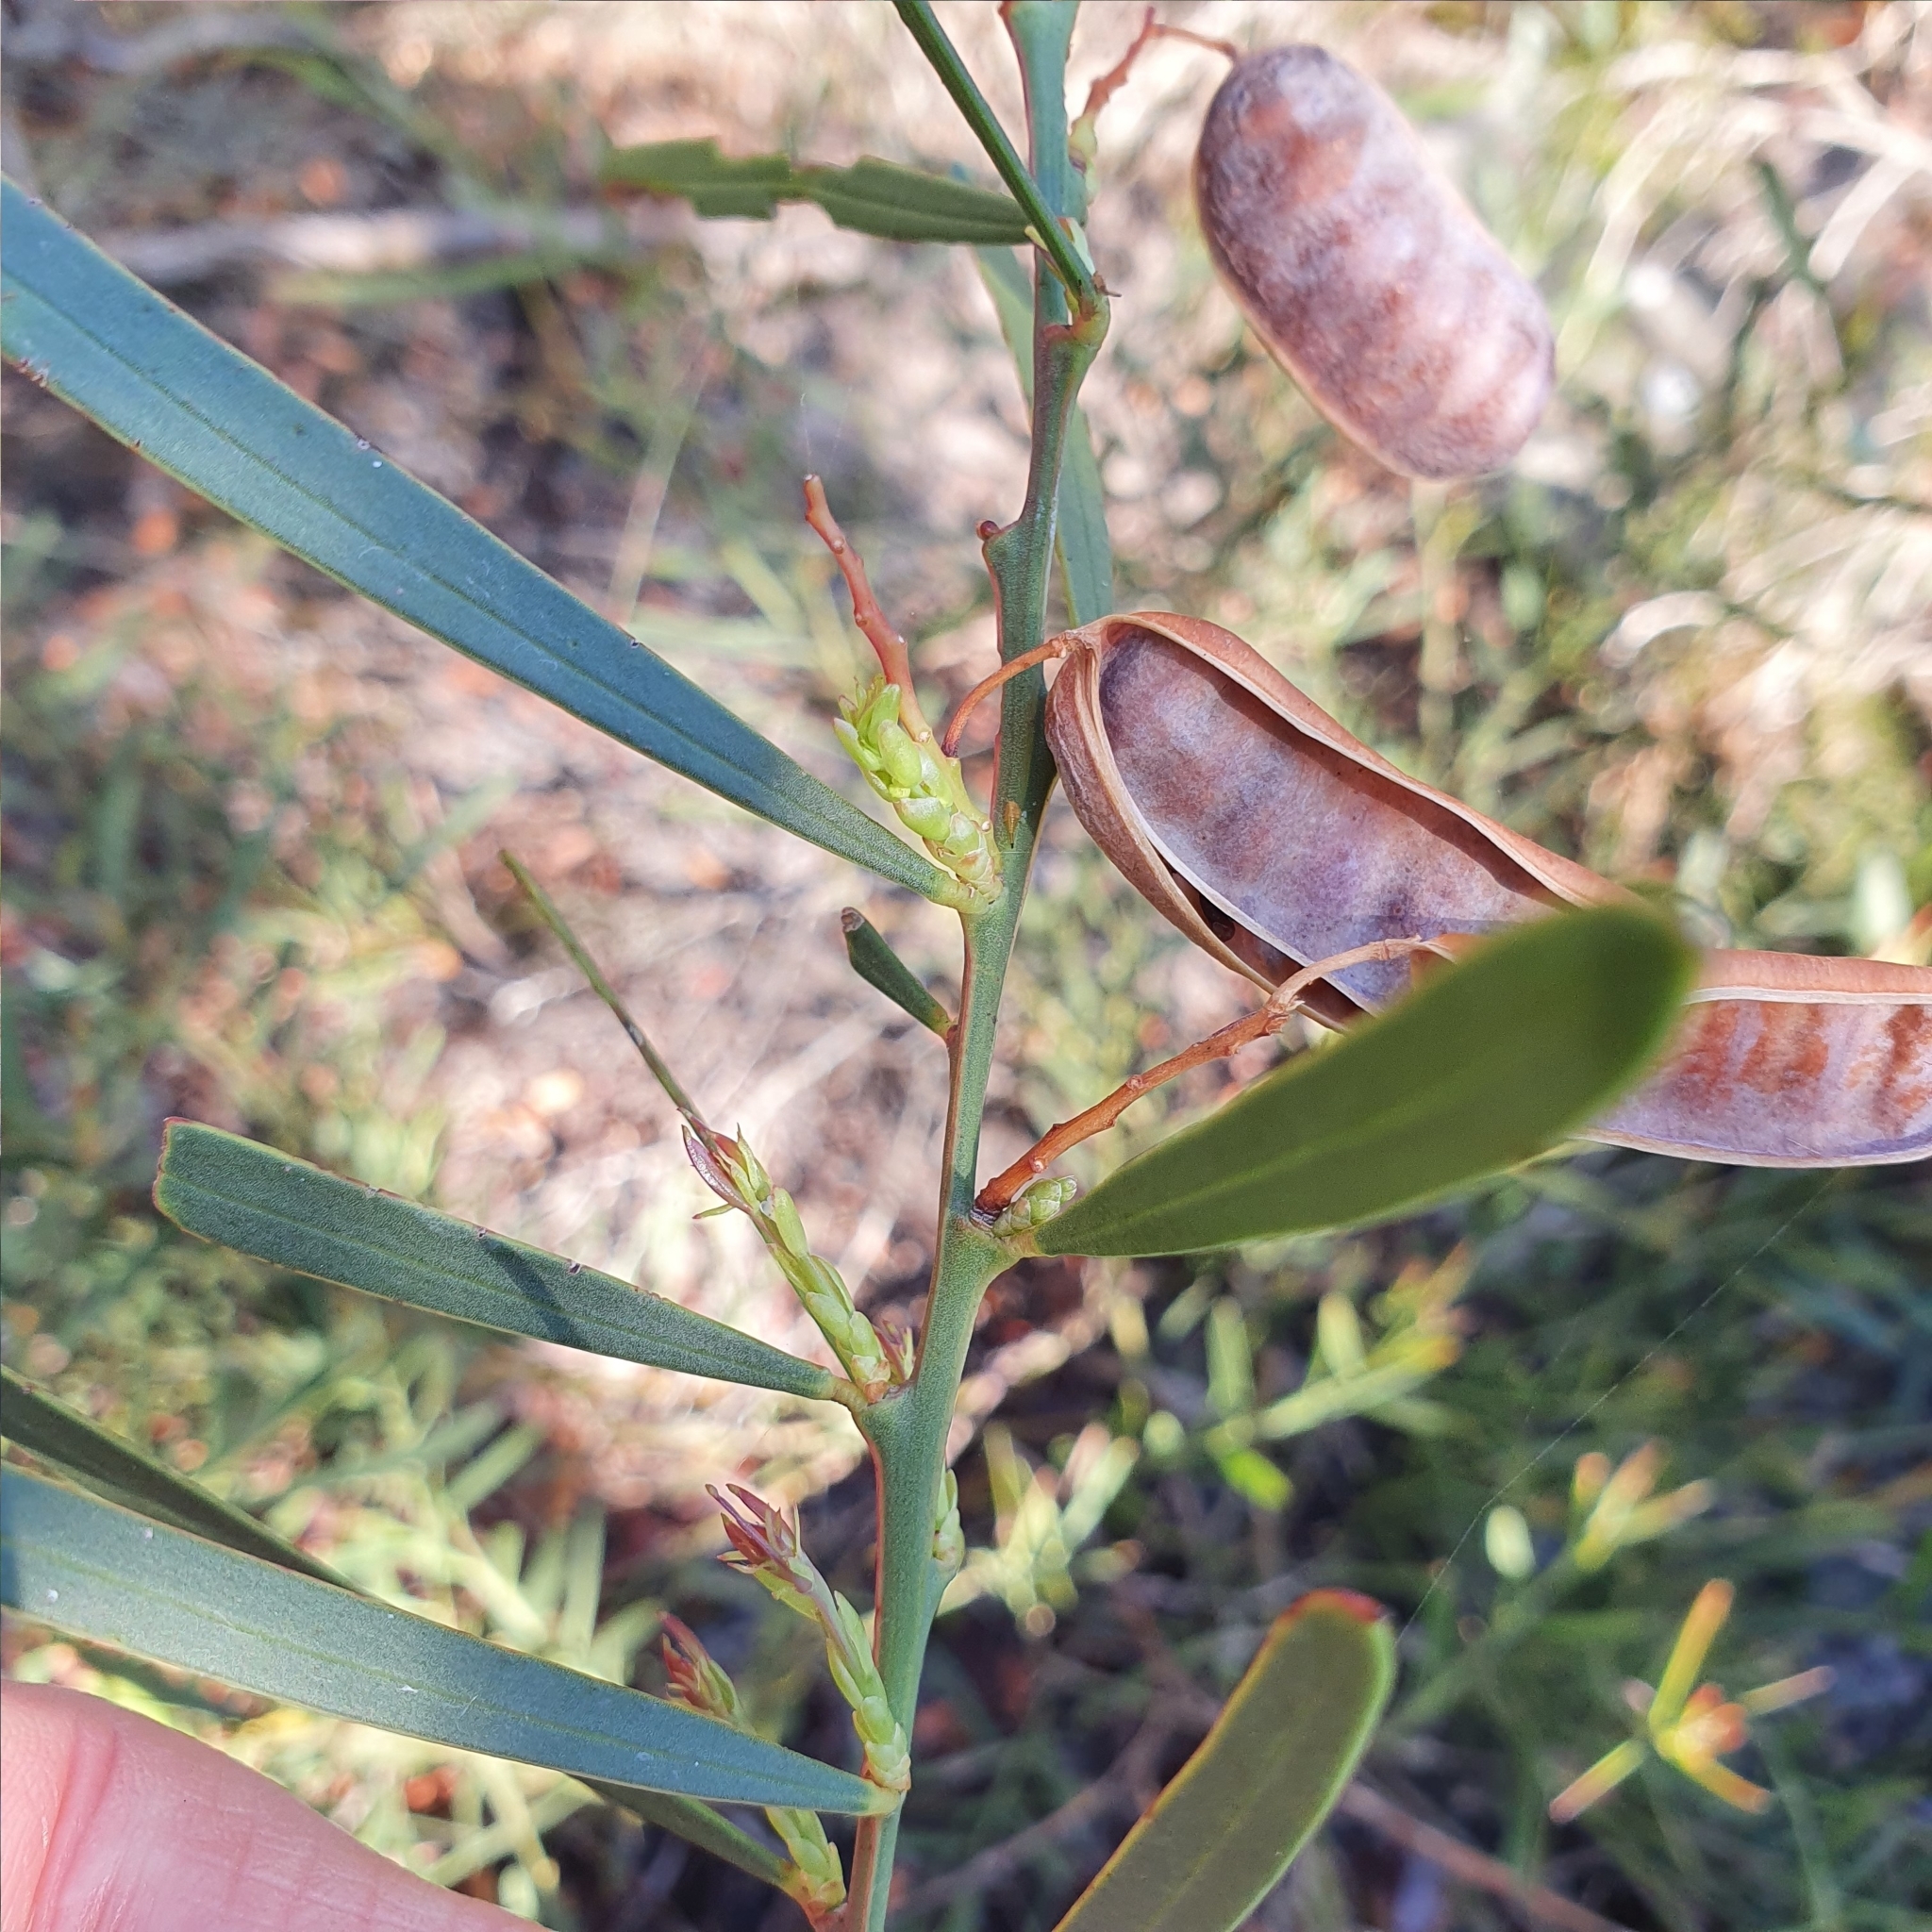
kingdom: Plantae
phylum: Tracheophyta
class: Magnoliopsida
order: Fabales
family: Fabaceae
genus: Acacia
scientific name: Acacia suaveolens
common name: Sweet acacia
